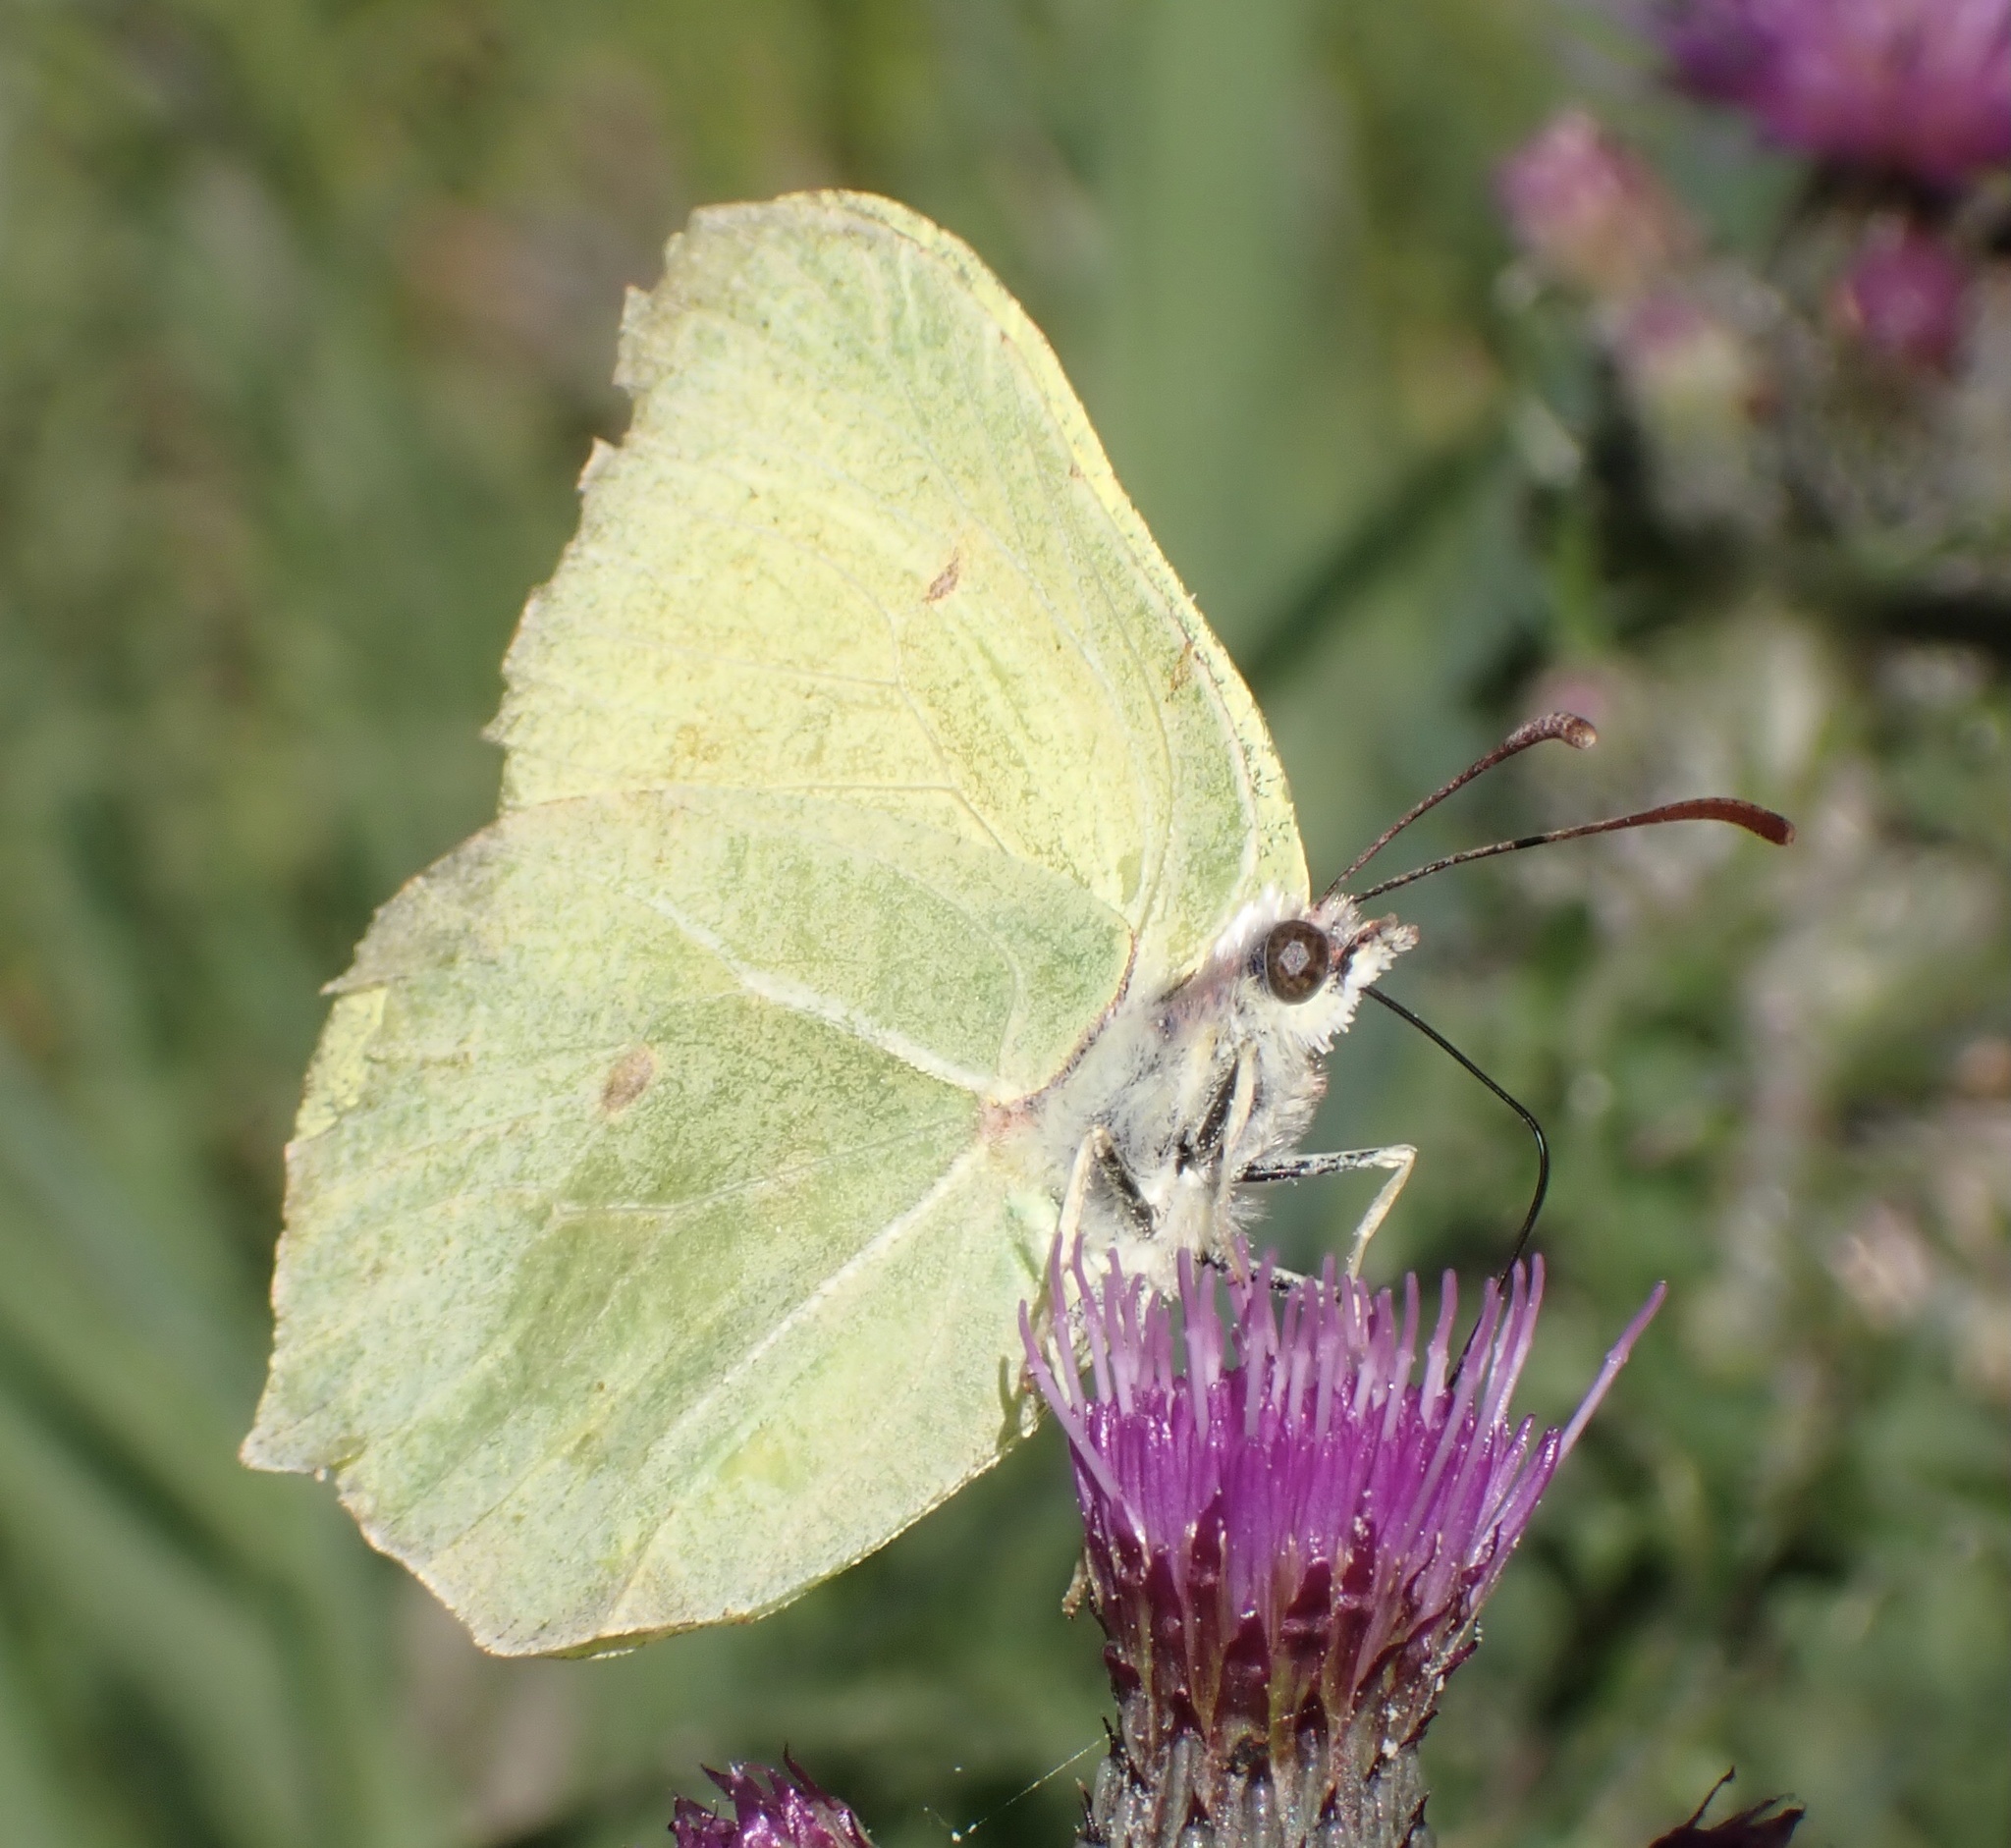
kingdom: Animalia
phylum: Arthropoda
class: Insecta
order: Lepidoptera
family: Pieridae
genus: Gonepteryx
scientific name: Gonepteryx rhamni
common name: Brimstone
